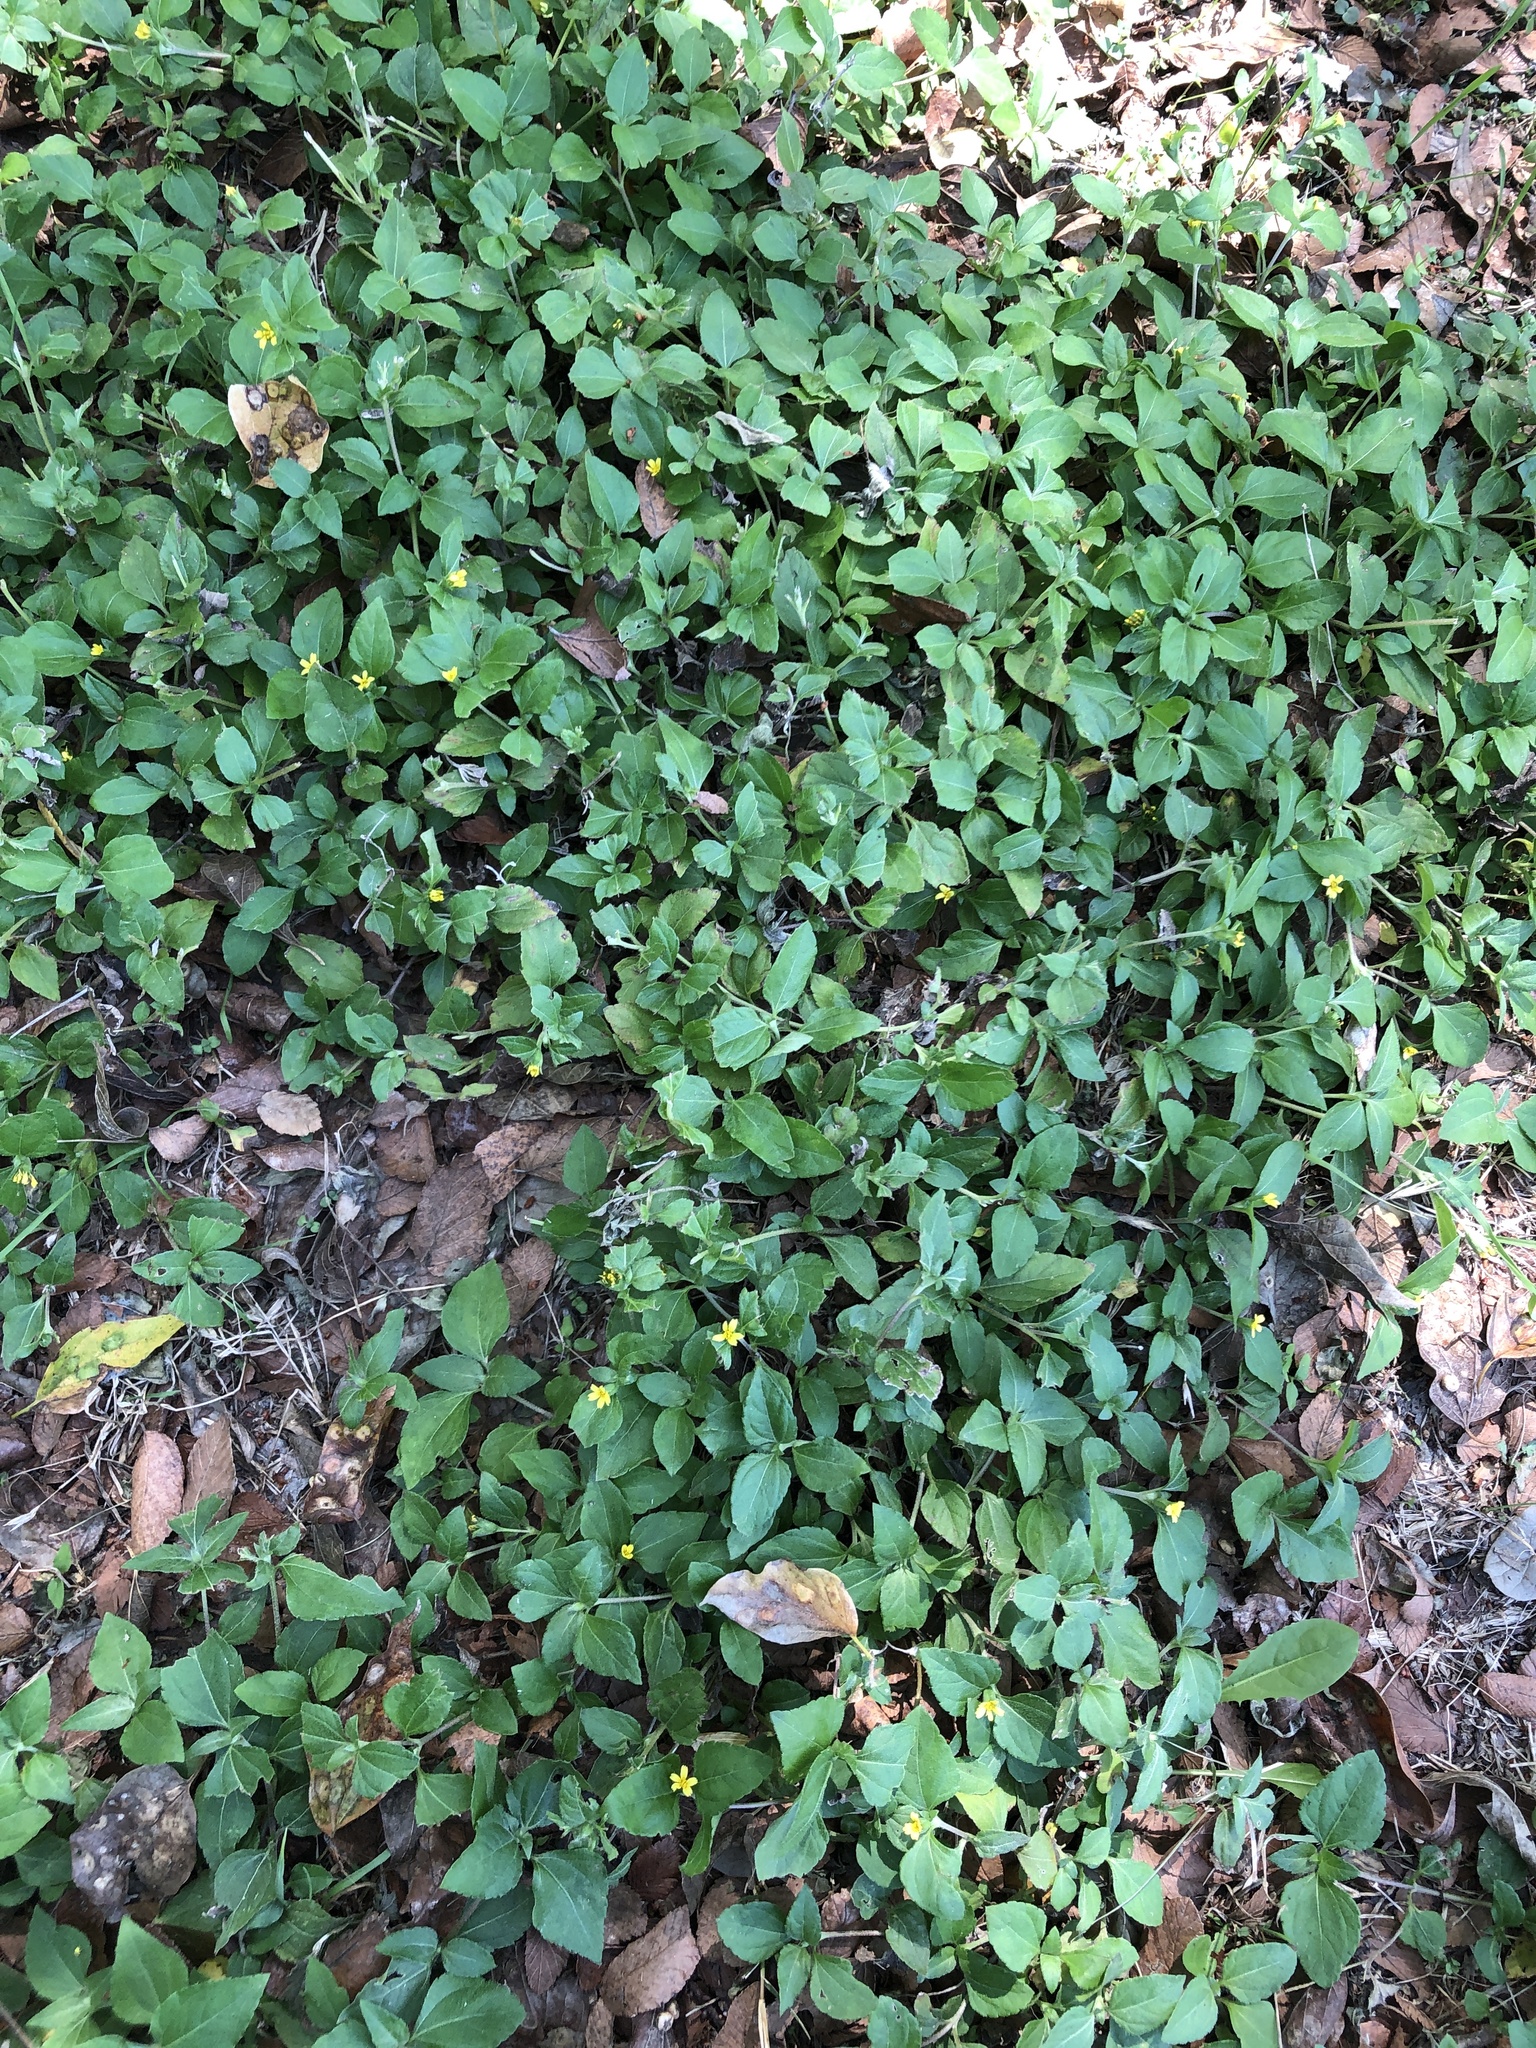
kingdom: Plantae
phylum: Tracheophyta
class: Magnoliopsida
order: Asterales
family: Asteraceae
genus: Calyptocarpus
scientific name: Calyptocarpus vialis
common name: Straggler daisy
